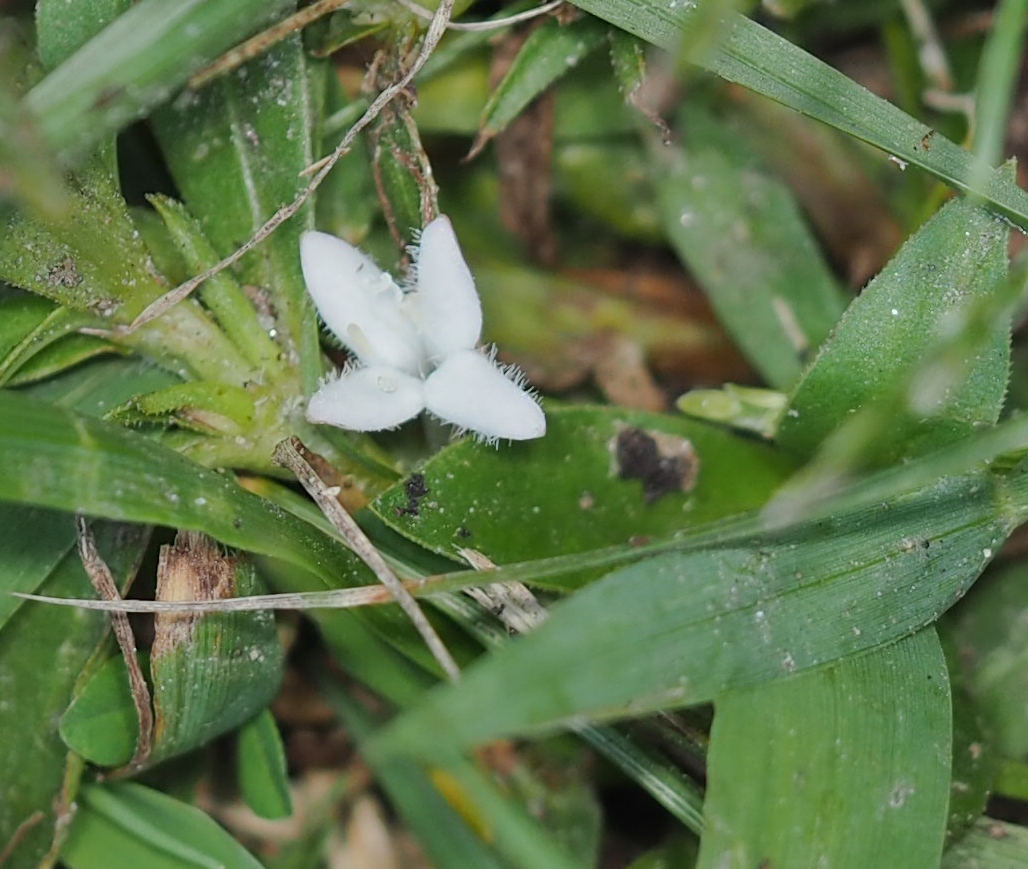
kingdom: Plantae
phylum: Tracheophyta
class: Magnoliopsida
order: Gentianales
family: Rubiaceae
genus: Diodia
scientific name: Diodia virginiana
